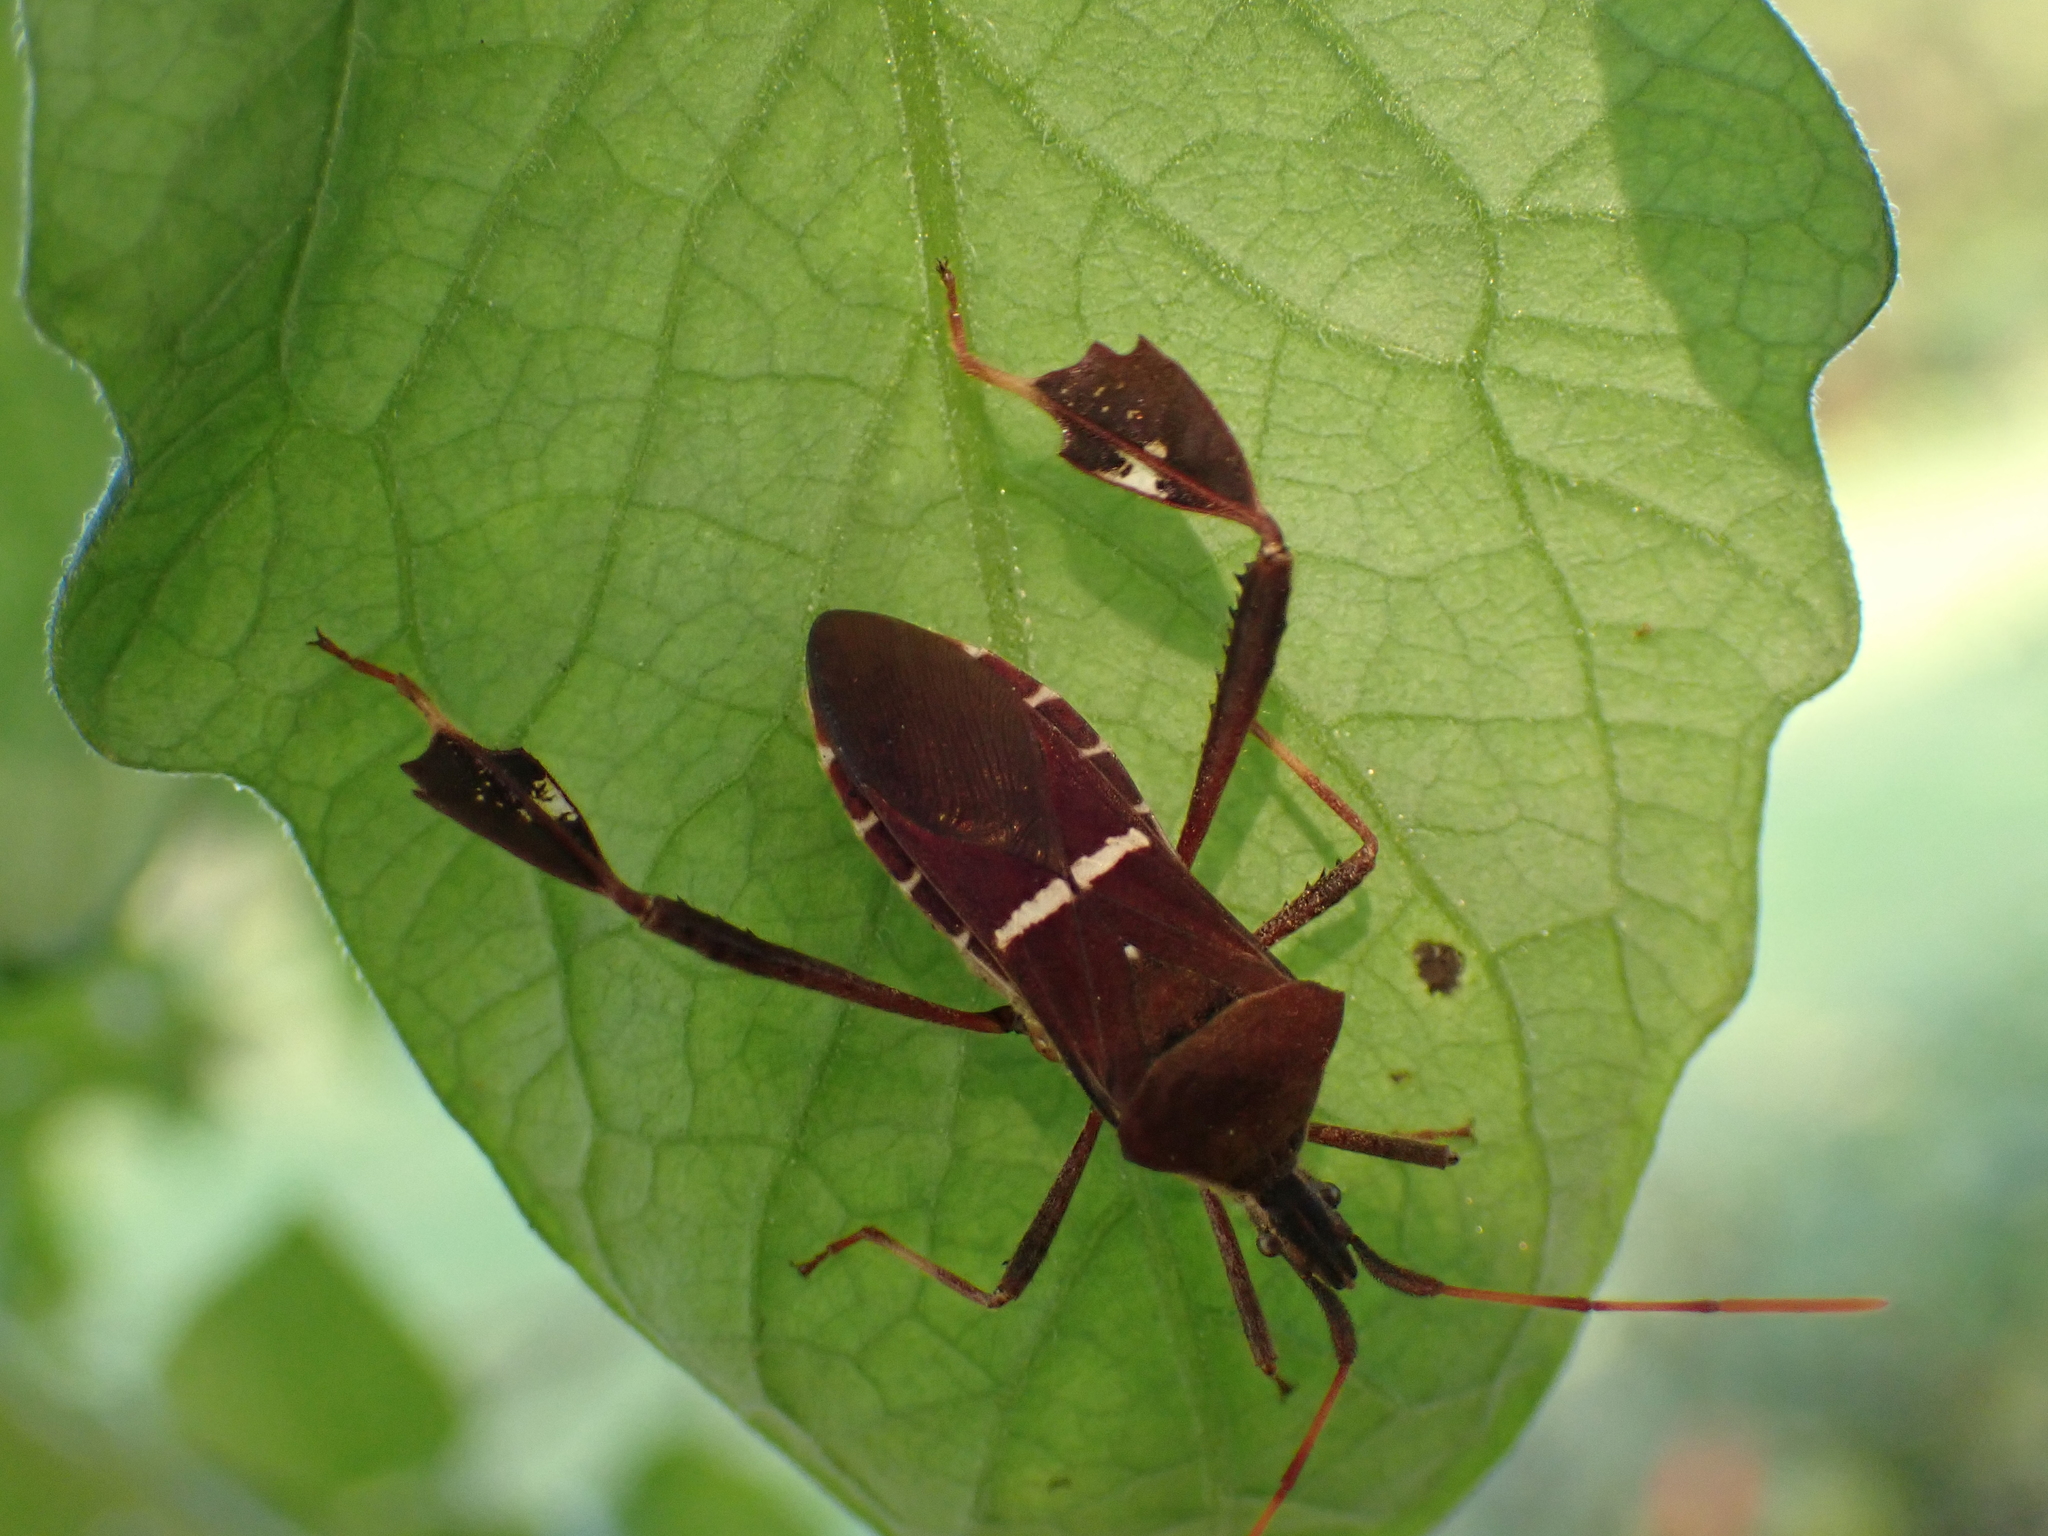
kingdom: Animalia
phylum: Arthropoda
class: Insecta
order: Hemiptera
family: Coreidae
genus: Leptoglossus
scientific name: Leptoglossus phyllopus
